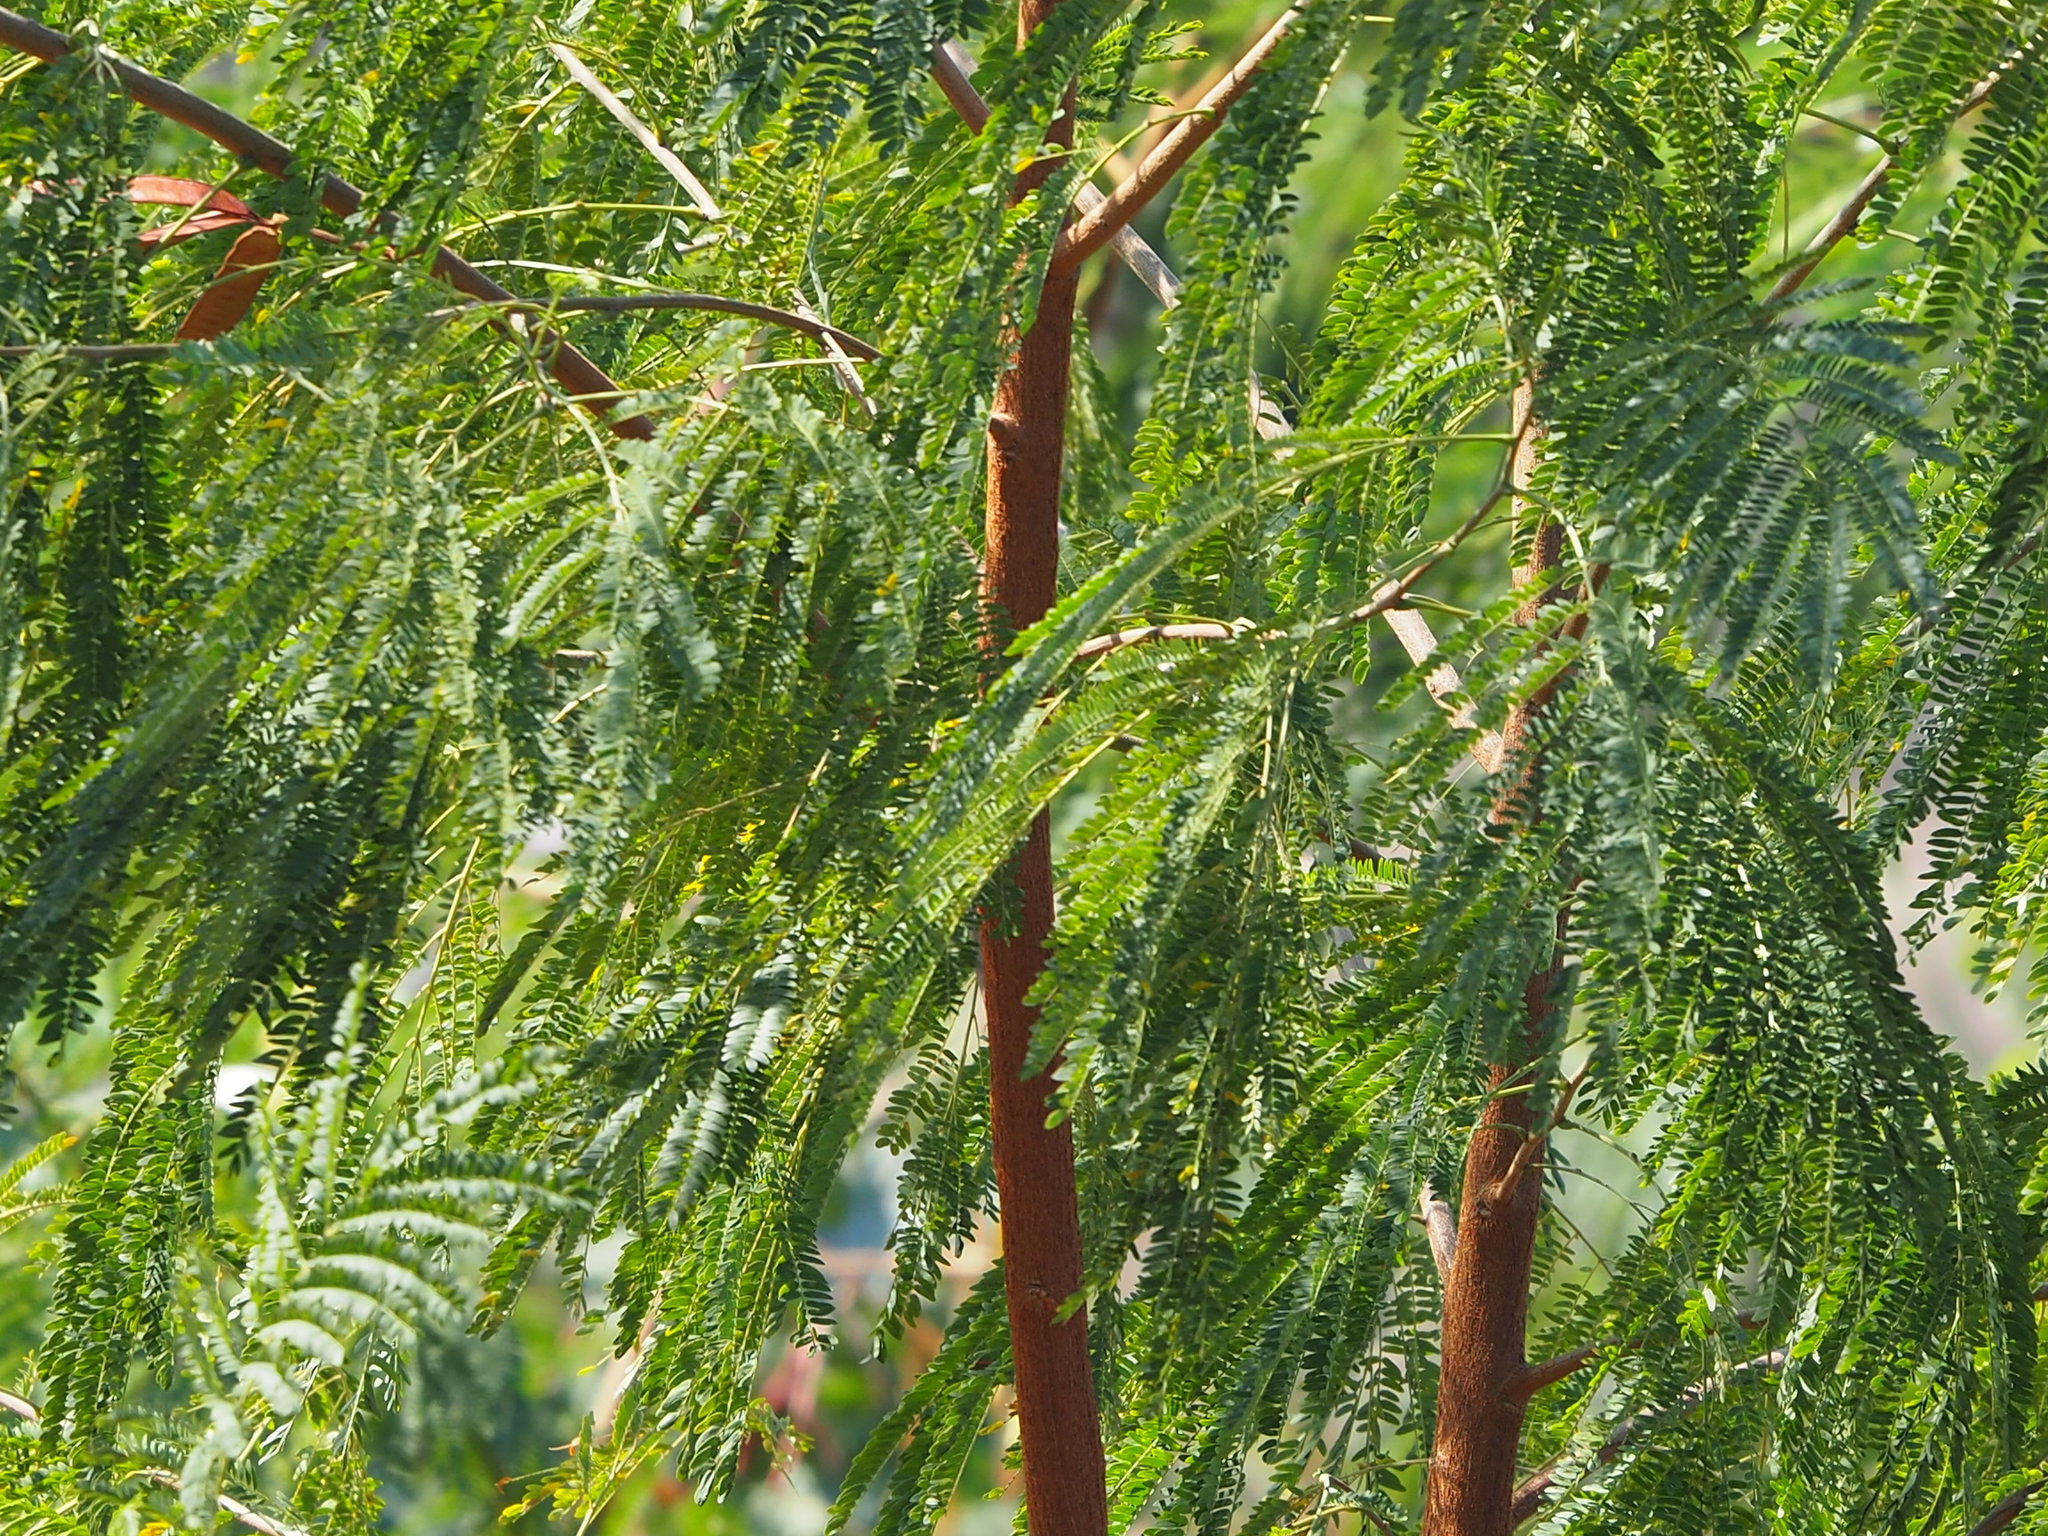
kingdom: Plantae
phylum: Tracheophyta
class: Magnoliopsida
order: Fabales
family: Fabaceae
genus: Leucaena
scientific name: Leucaena leucocephala
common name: White leadtree
